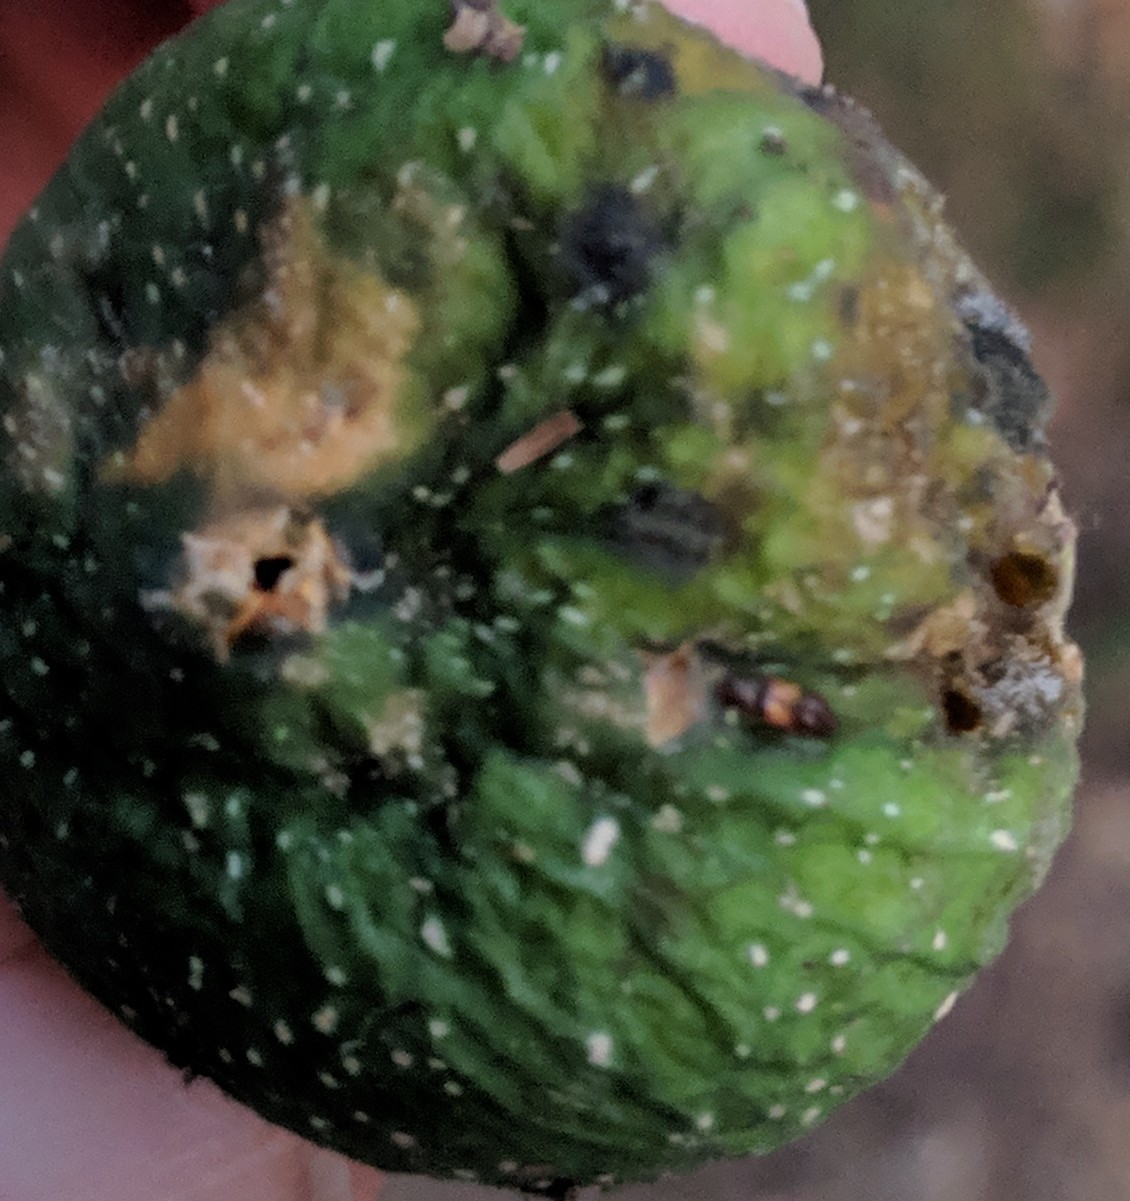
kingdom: Animalia
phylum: Arthropoda
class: Insecta
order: Coleoptera
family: Nitidulidae
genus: Carpophilus
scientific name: Carpophilus hemipterus
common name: Dried fruit beetle
